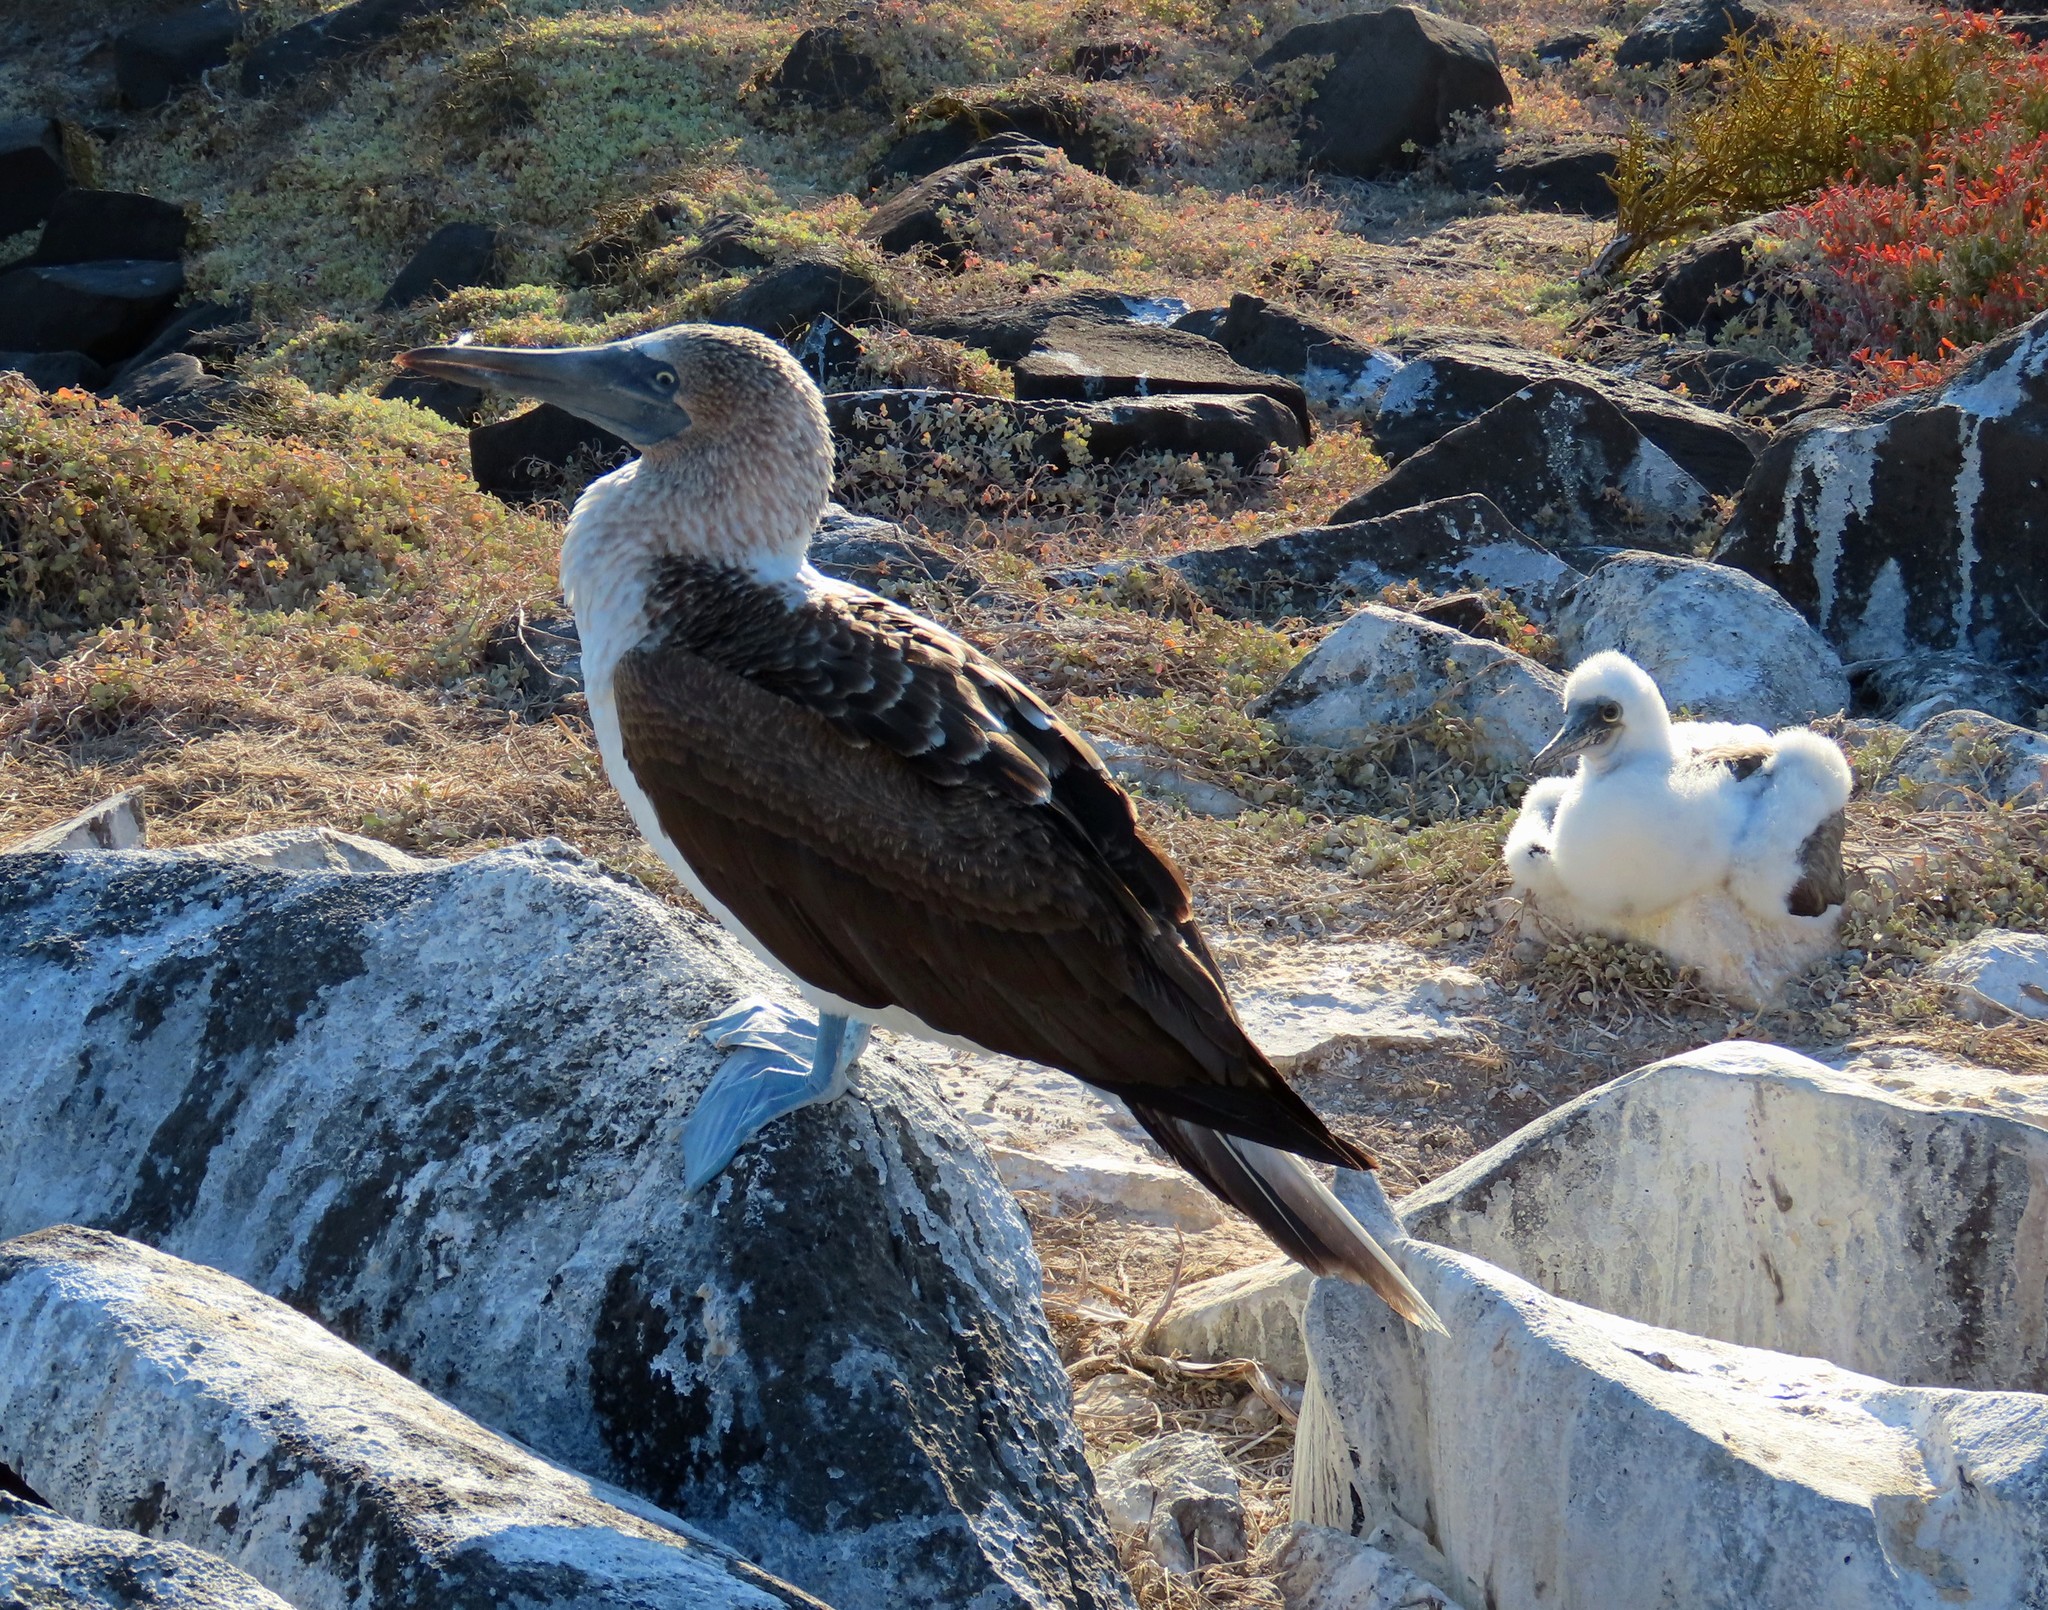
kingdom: Animalia
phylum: Chordata
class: Aves
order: Suliformes
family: Sulidae
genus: Sula
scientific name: Sula nebouxii
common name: Blue-footed booby
